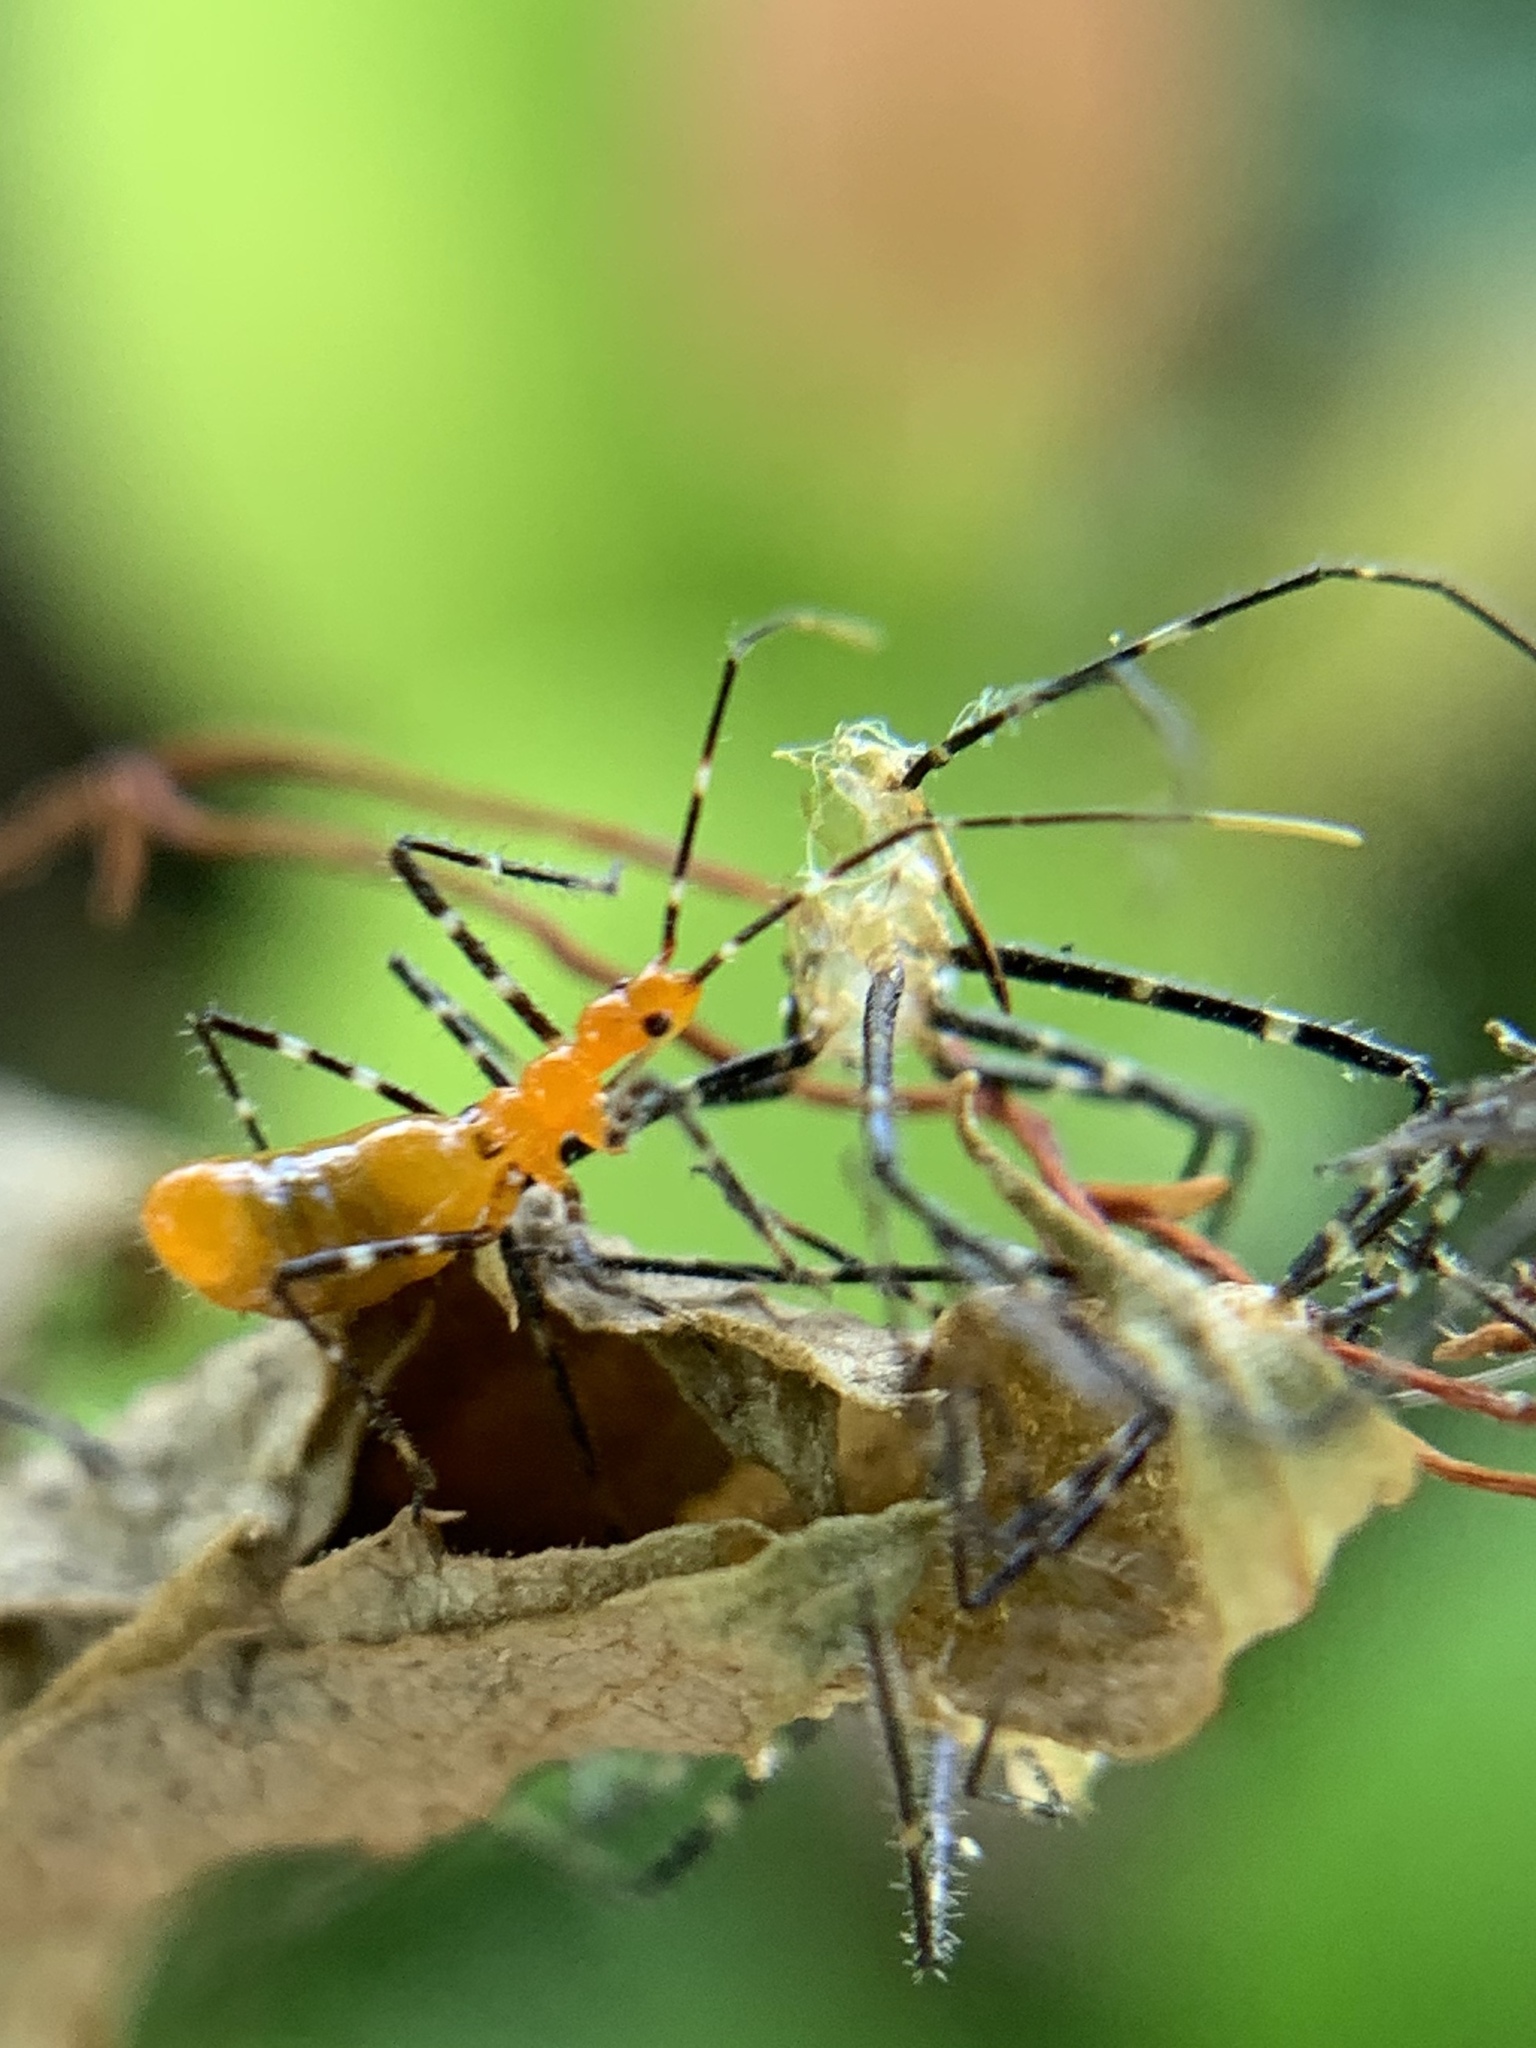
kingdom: Animalia
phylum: Arthropoda
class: Insecta
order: Hemiptera
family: Reduviidae
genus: Zelus
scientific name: Zelus longipes
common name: Milkweed assassin bug
